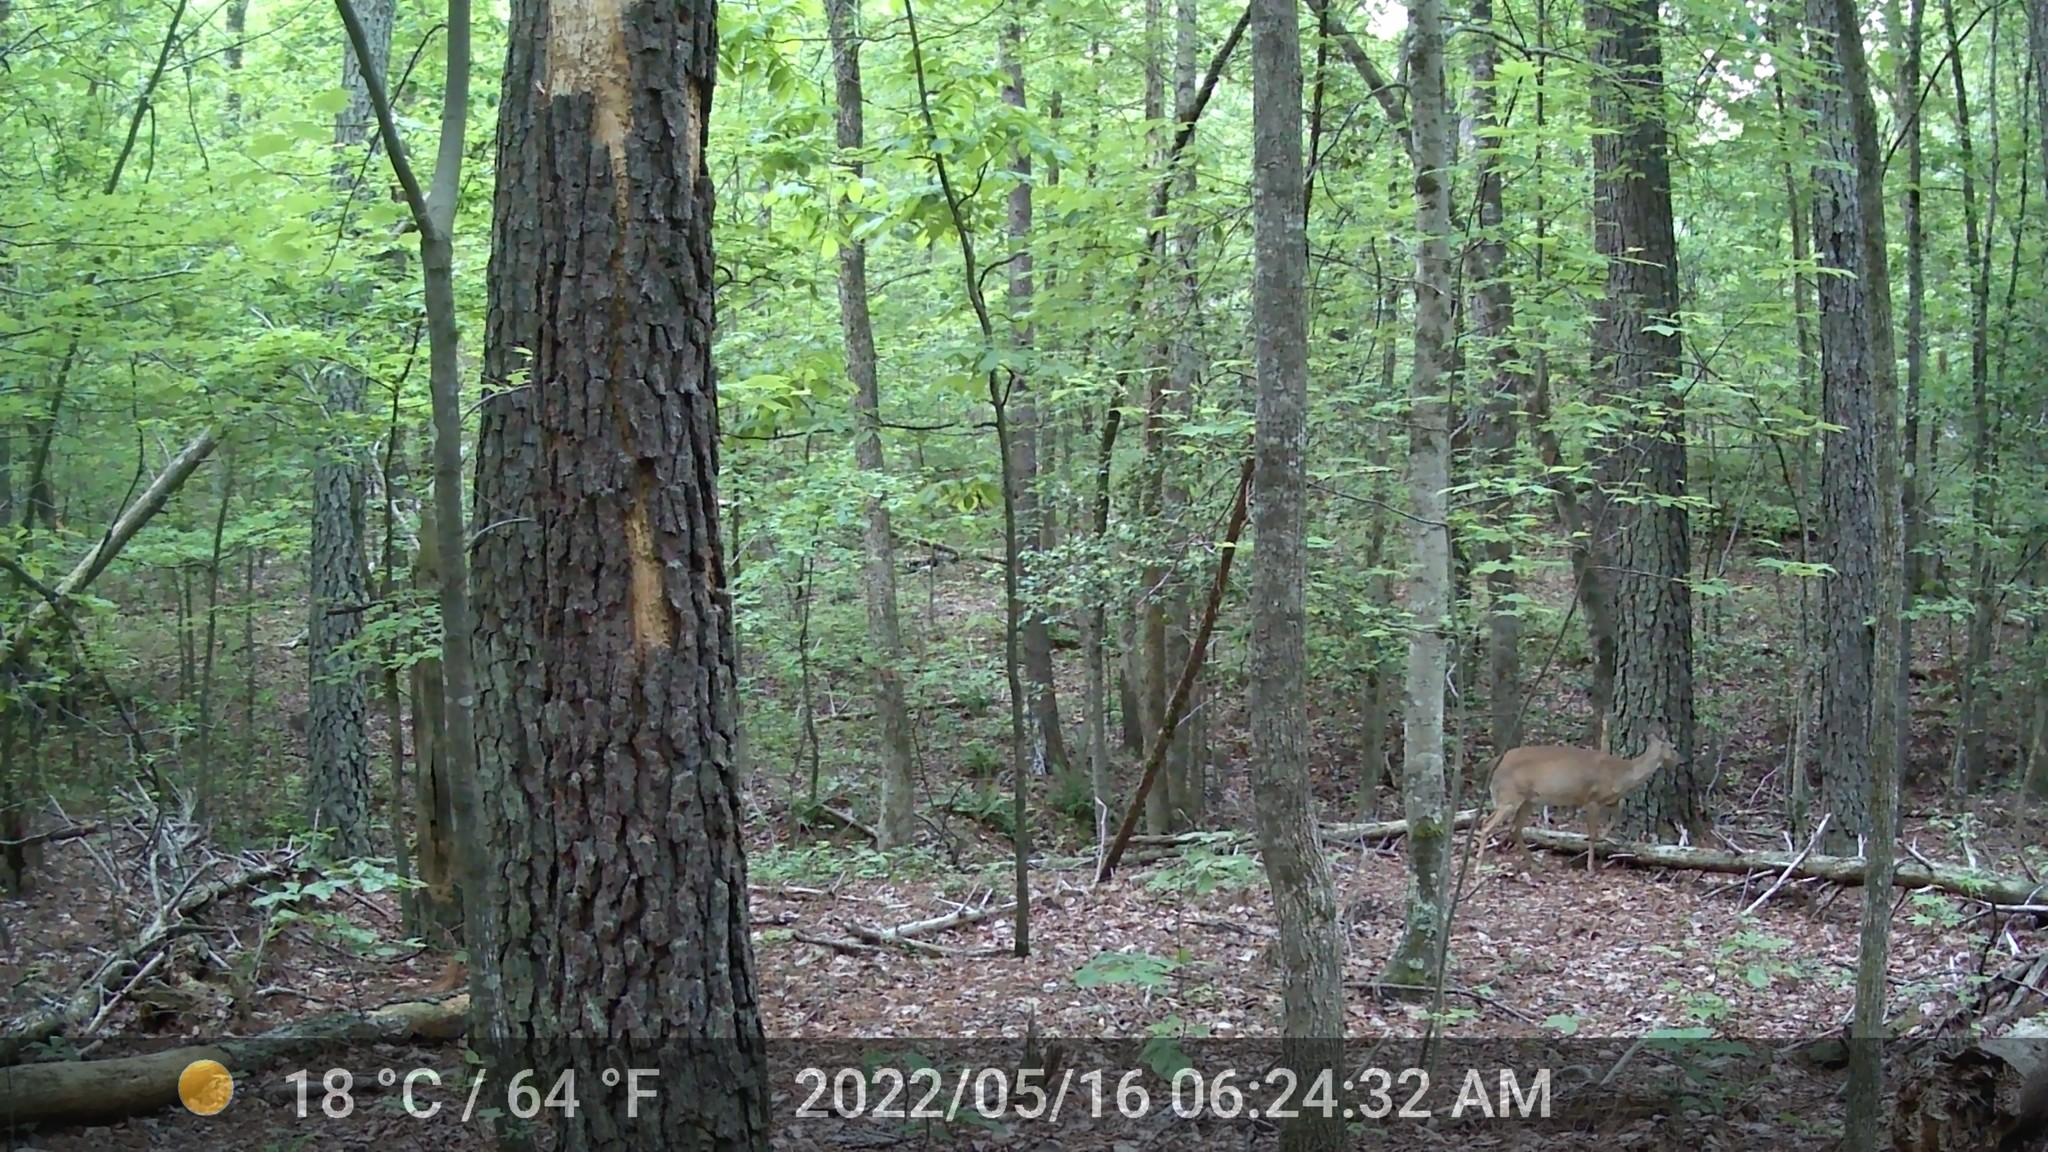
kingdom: Animalia
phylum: Chordata
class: Mammalia
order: Artiodactyla
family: Cervidae
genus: Odocoileus
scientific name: Odocoileus virginianus
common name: White-tailed deer
